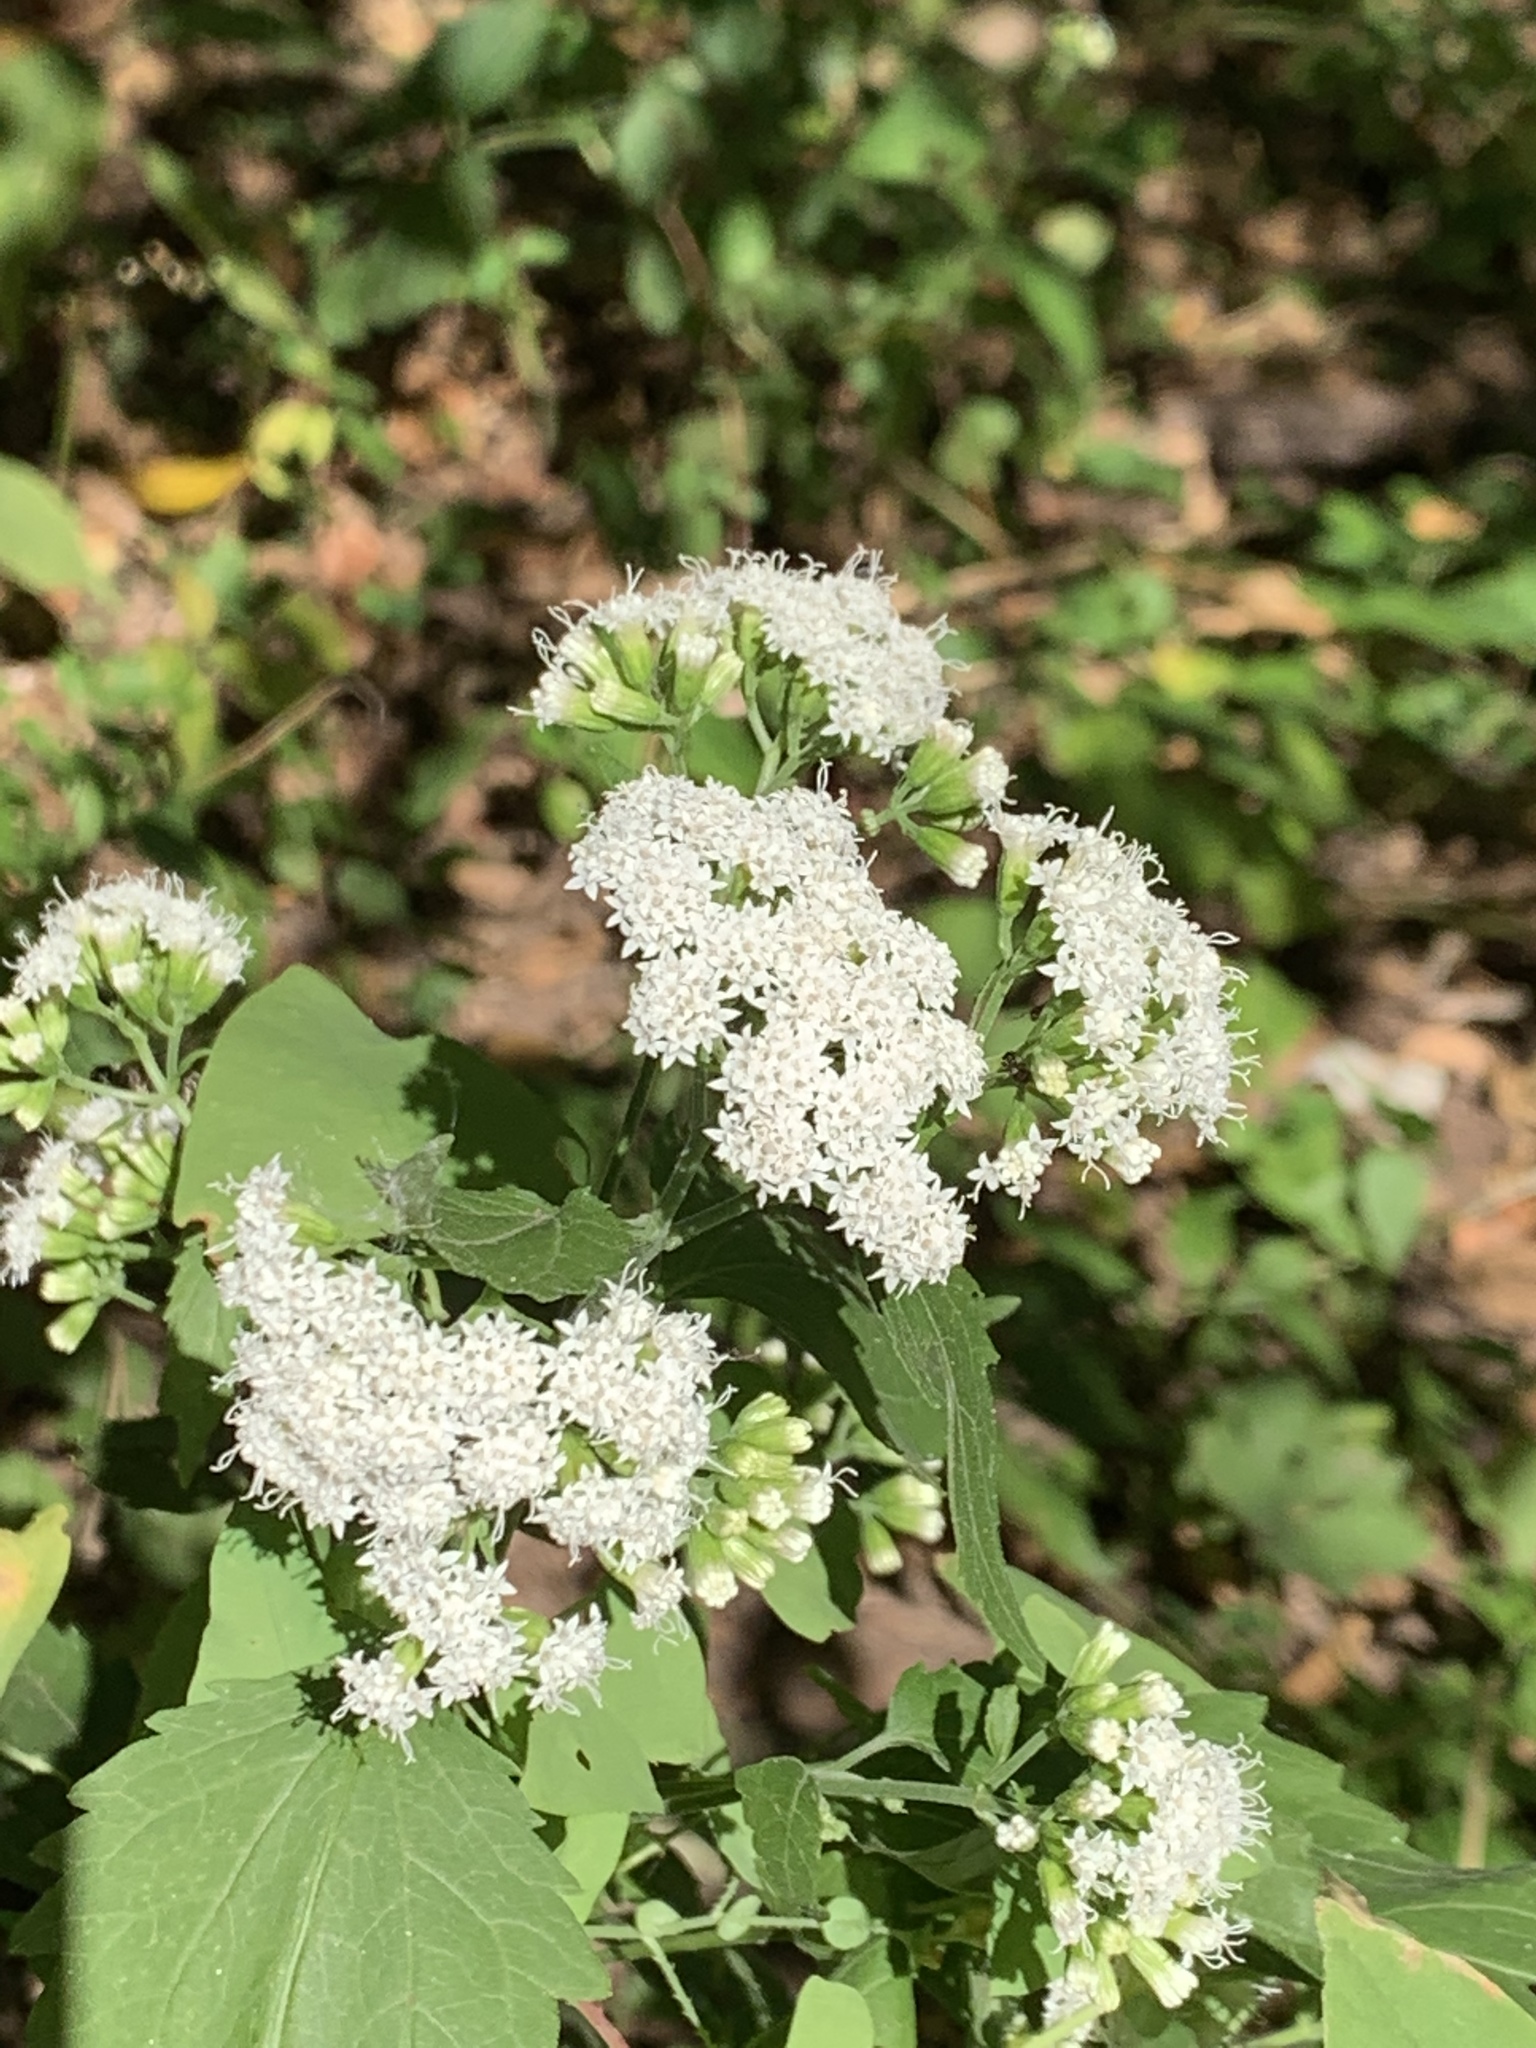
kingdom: Plantae
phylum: Tracheophyta
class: Magnoliopsida
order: Asterales
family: Asteraceae
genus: Ageratina
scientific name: Ageratina altissima
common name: White snakeroot
